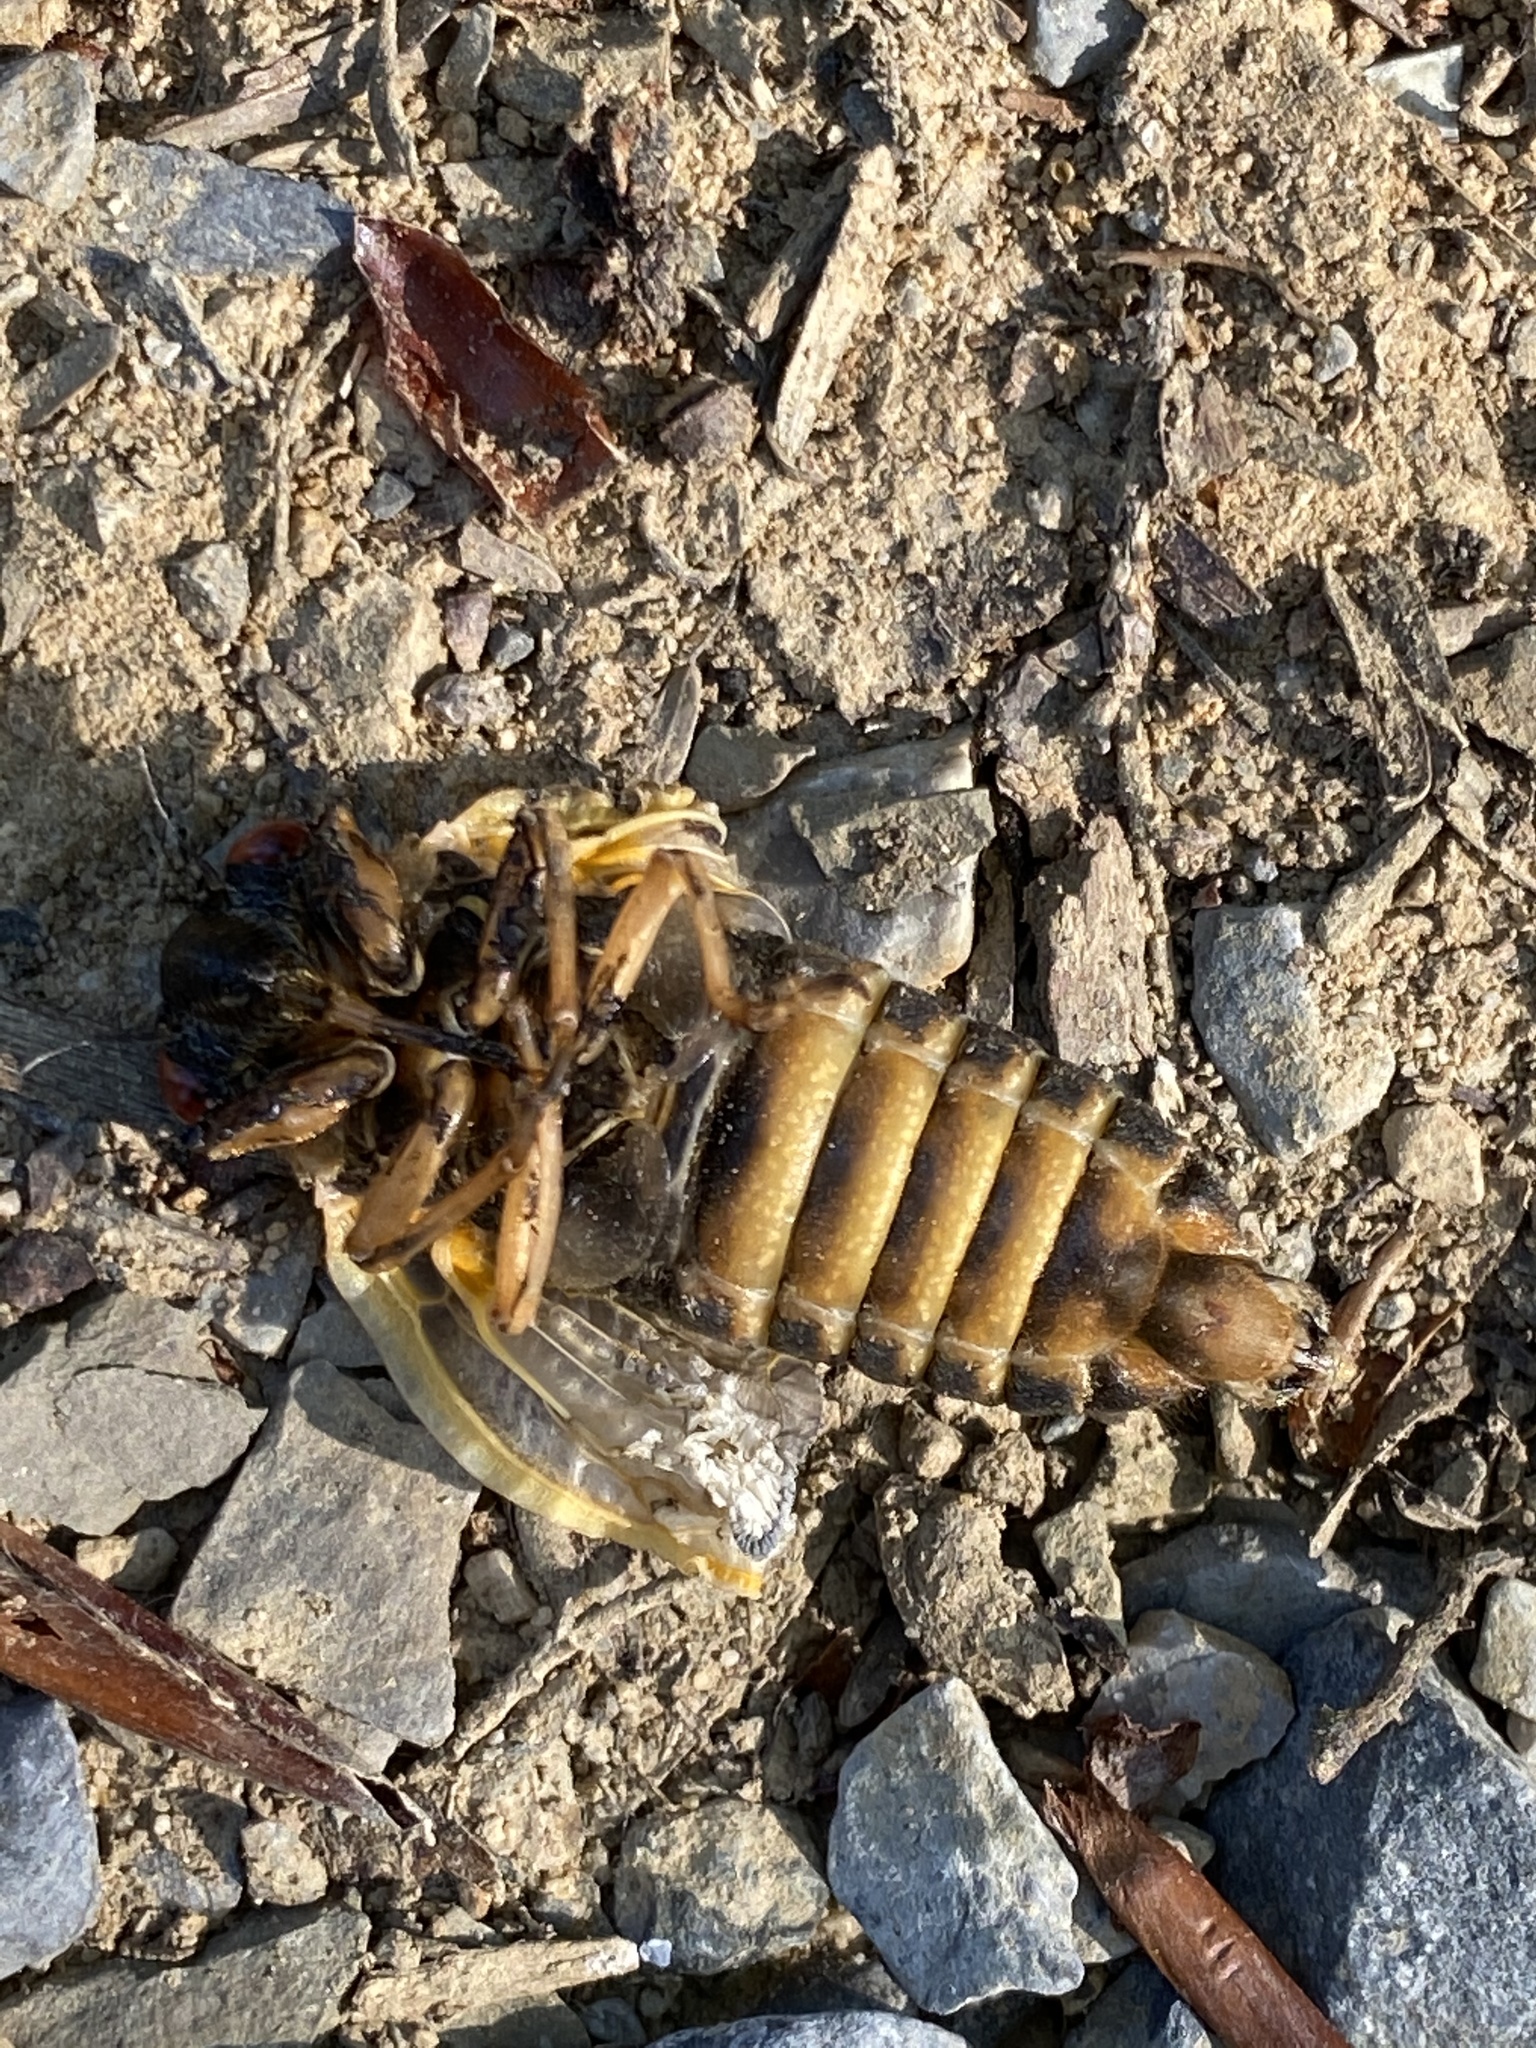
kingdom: Animalia
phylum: Arthropoda
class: Insecta
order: Hemiptera
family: Cicadidae
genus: Magicicada
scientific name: Magicicada septendecim
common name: Periodical cicada
